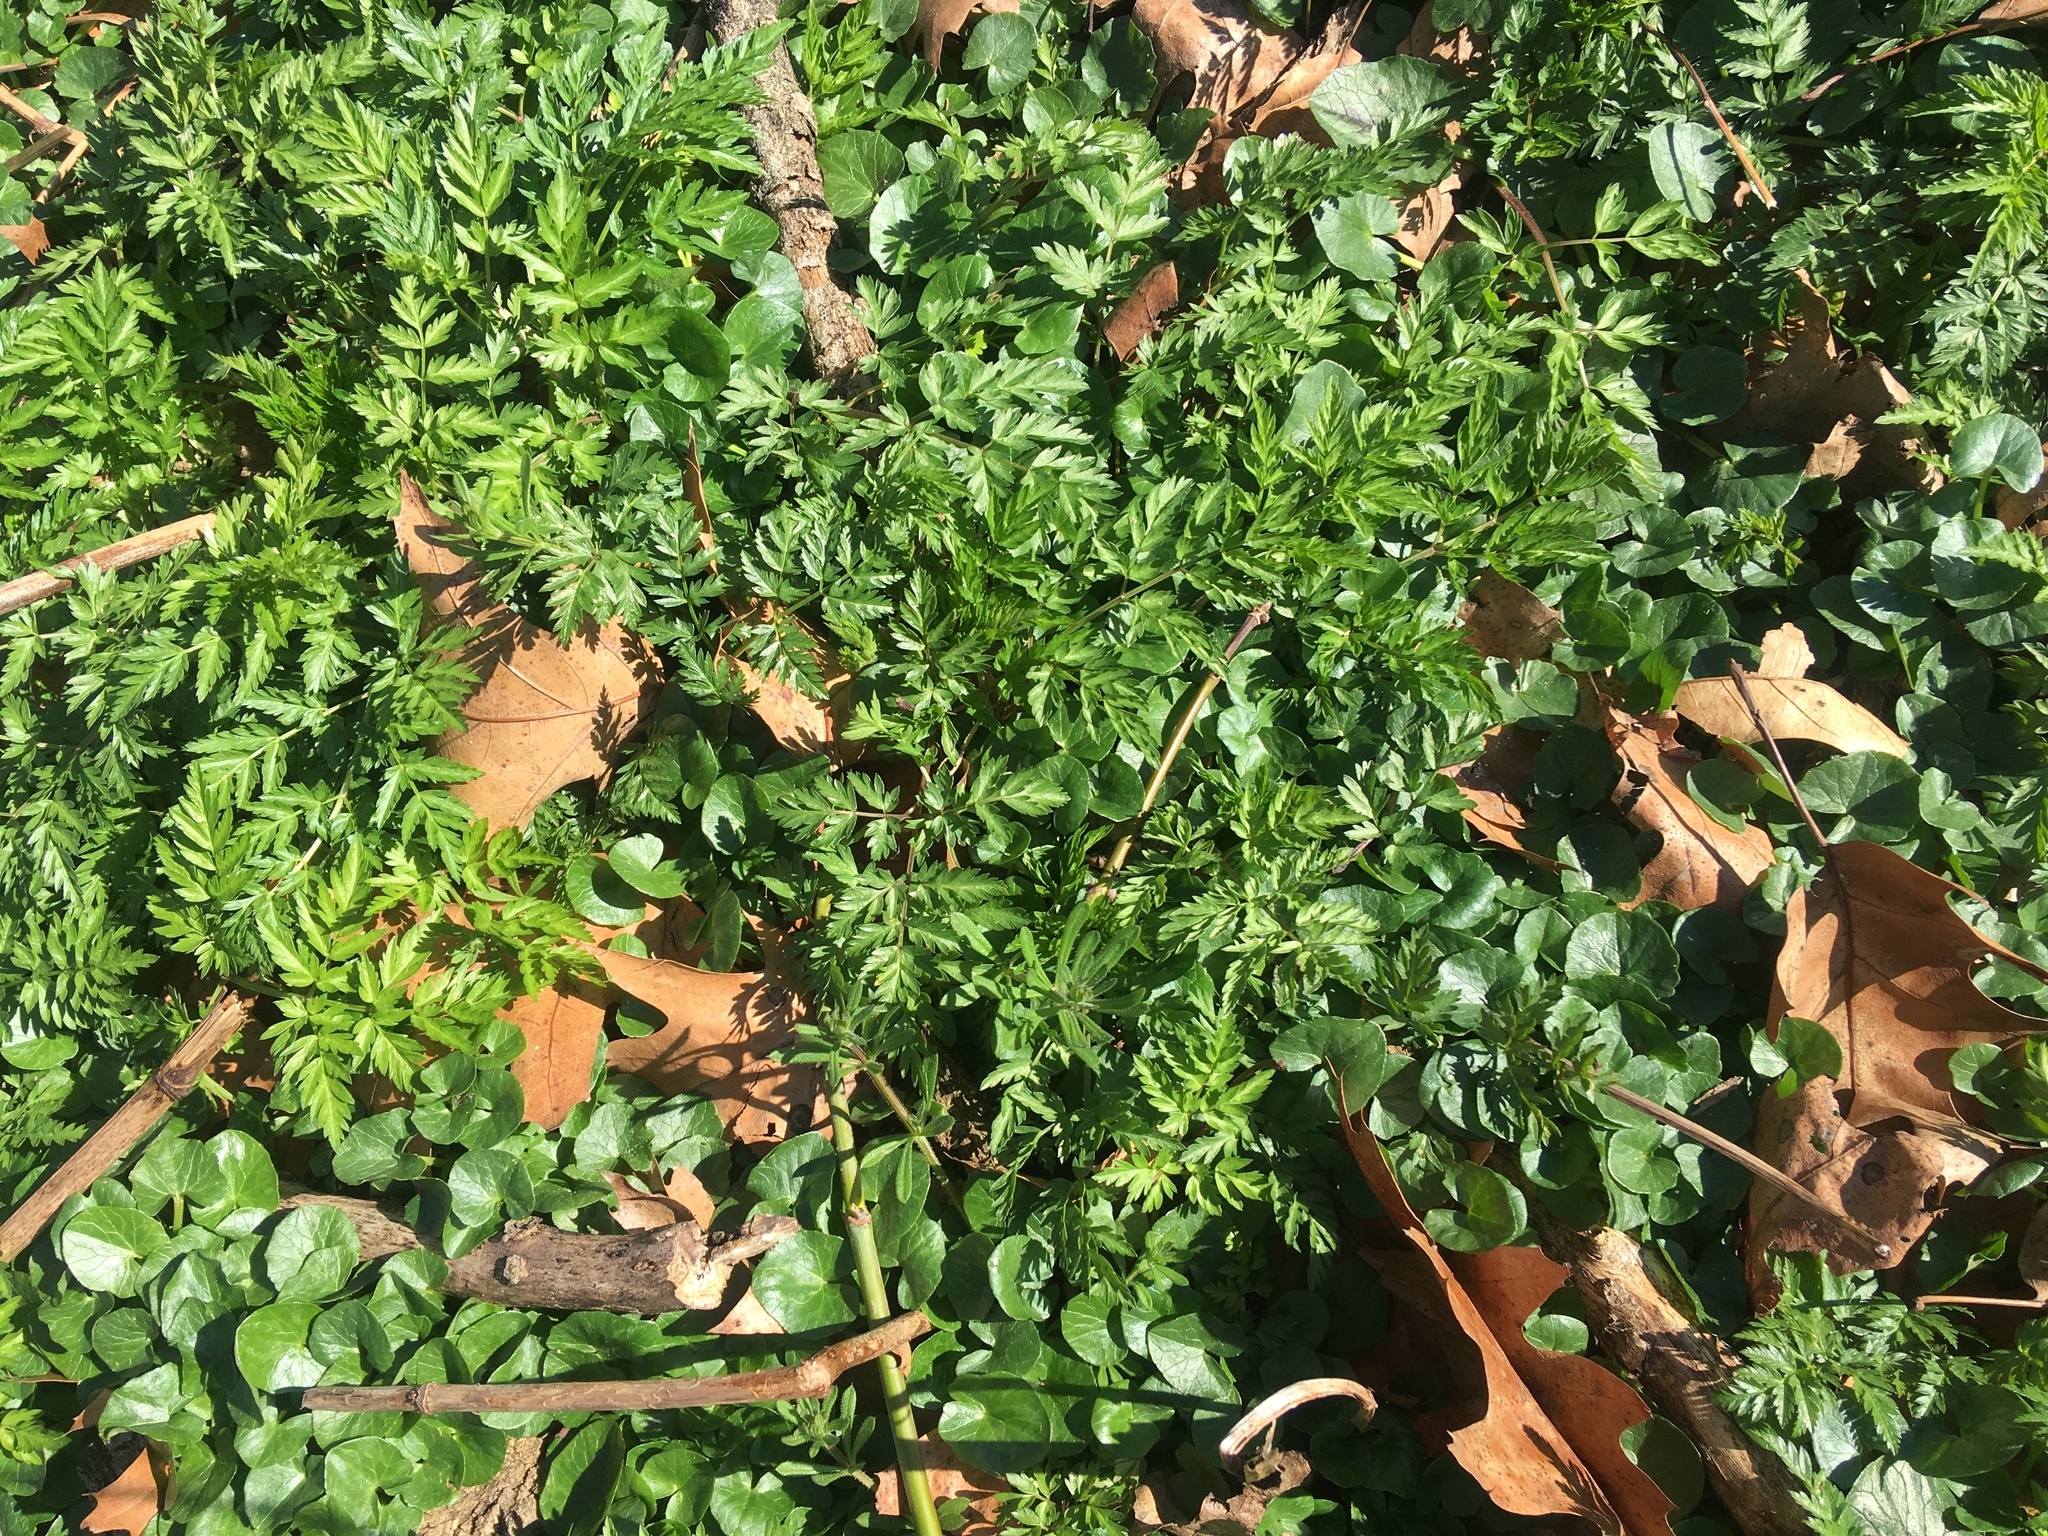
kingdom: Plantae
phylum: Tracheophyta
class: Magnoliopsida
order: Ranunculales
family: Ranunculaceae
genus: Ficaria
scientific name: Ficaria verna
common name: Lesser celandine
